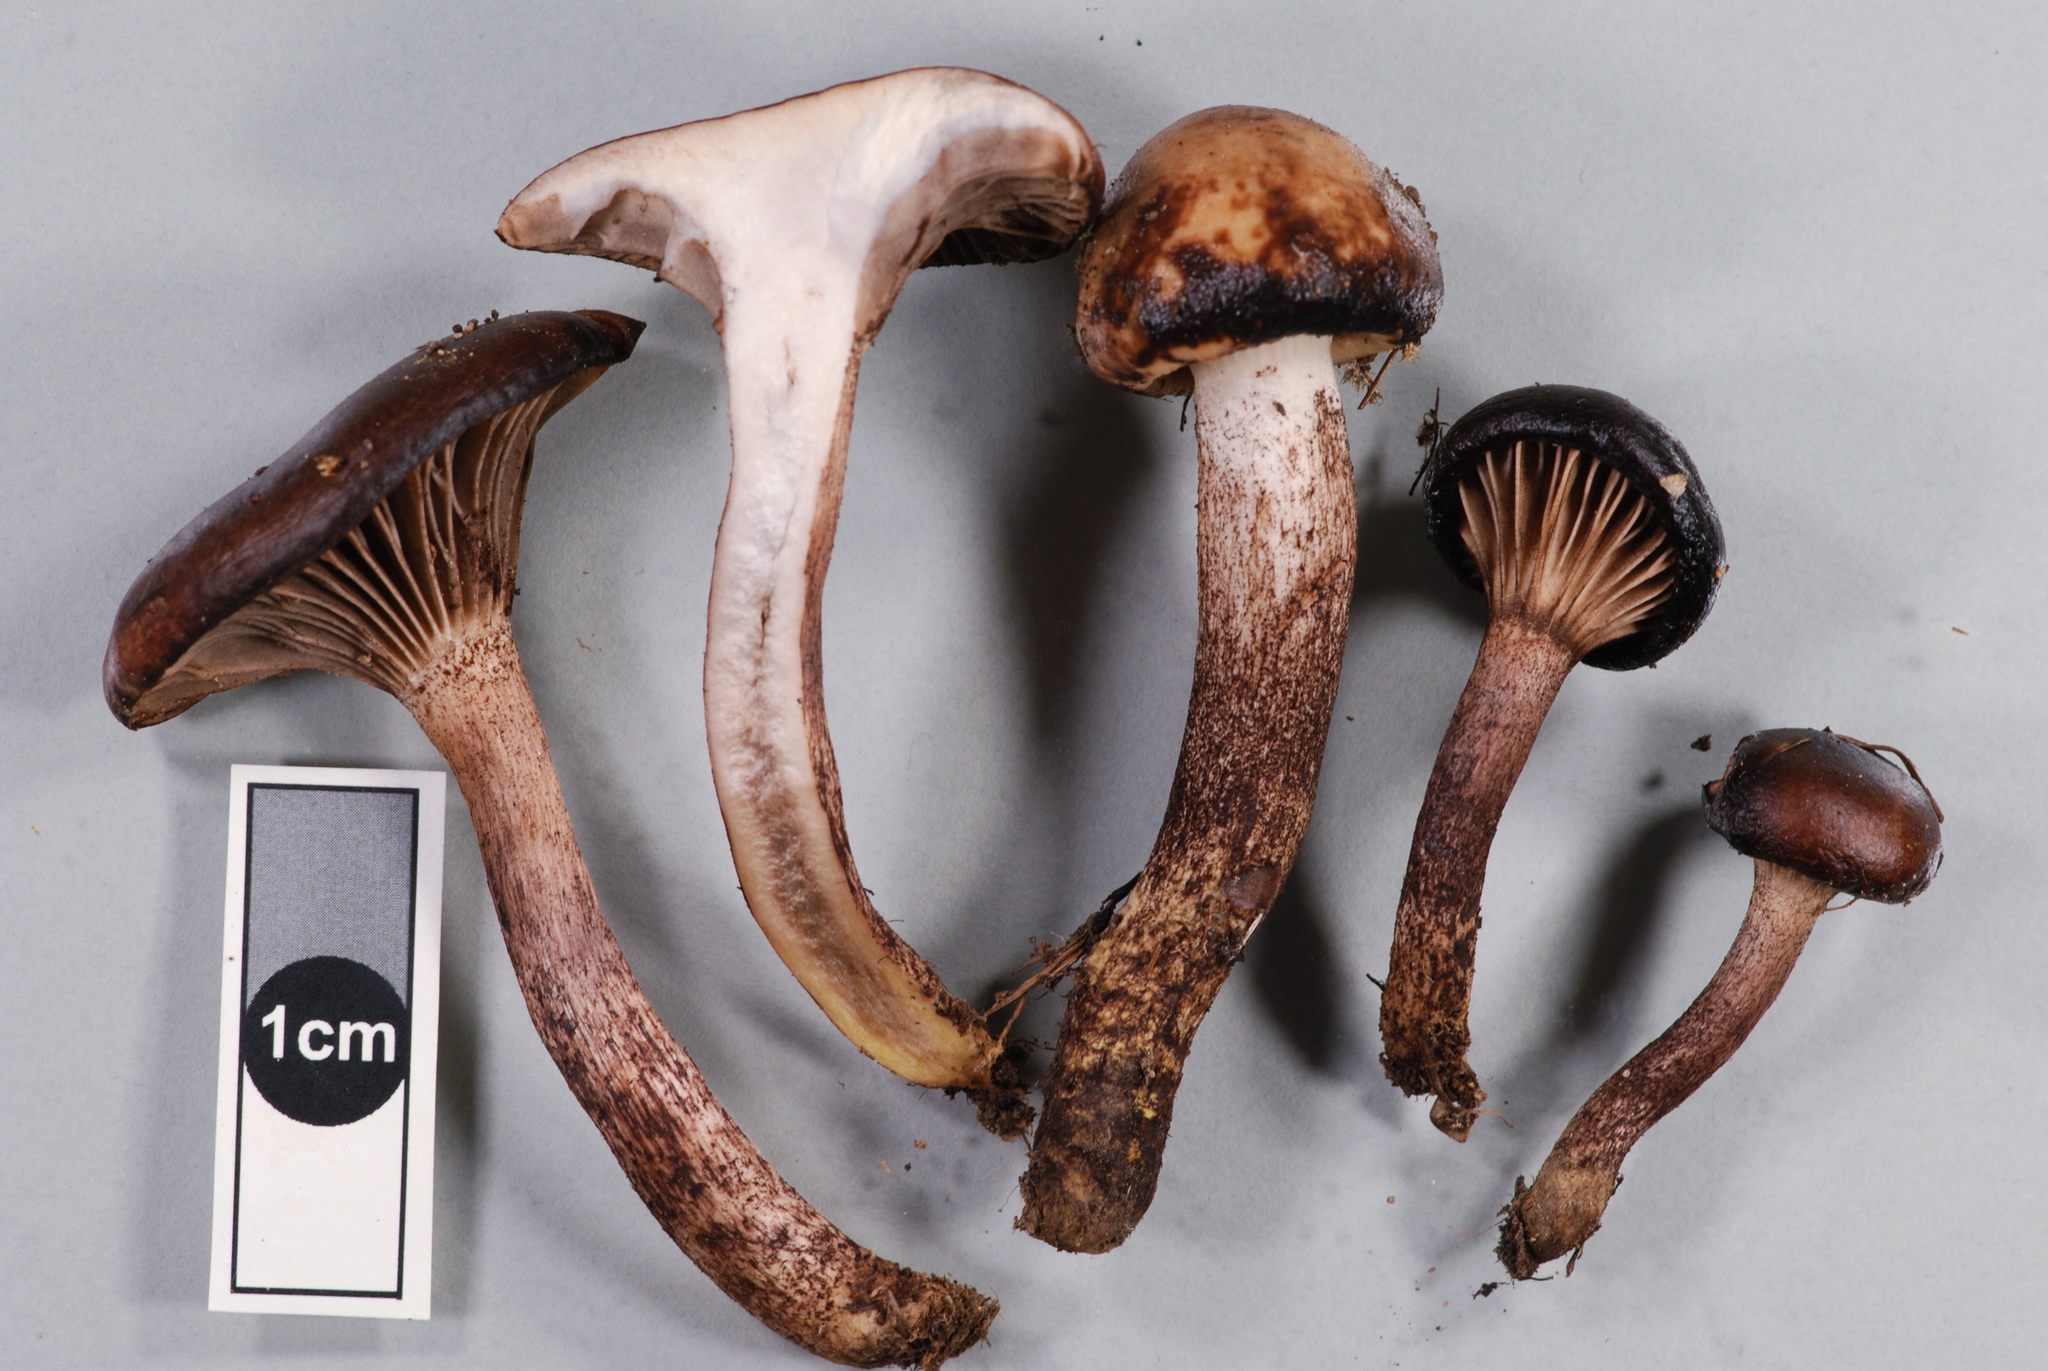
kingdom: Fungi
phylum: Basidiomycota
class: Agaricomycetes
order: Boletales
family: Gomphidiaceae
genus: Gomphidius
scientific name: Gomphidius maculatus
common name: Larch spike
